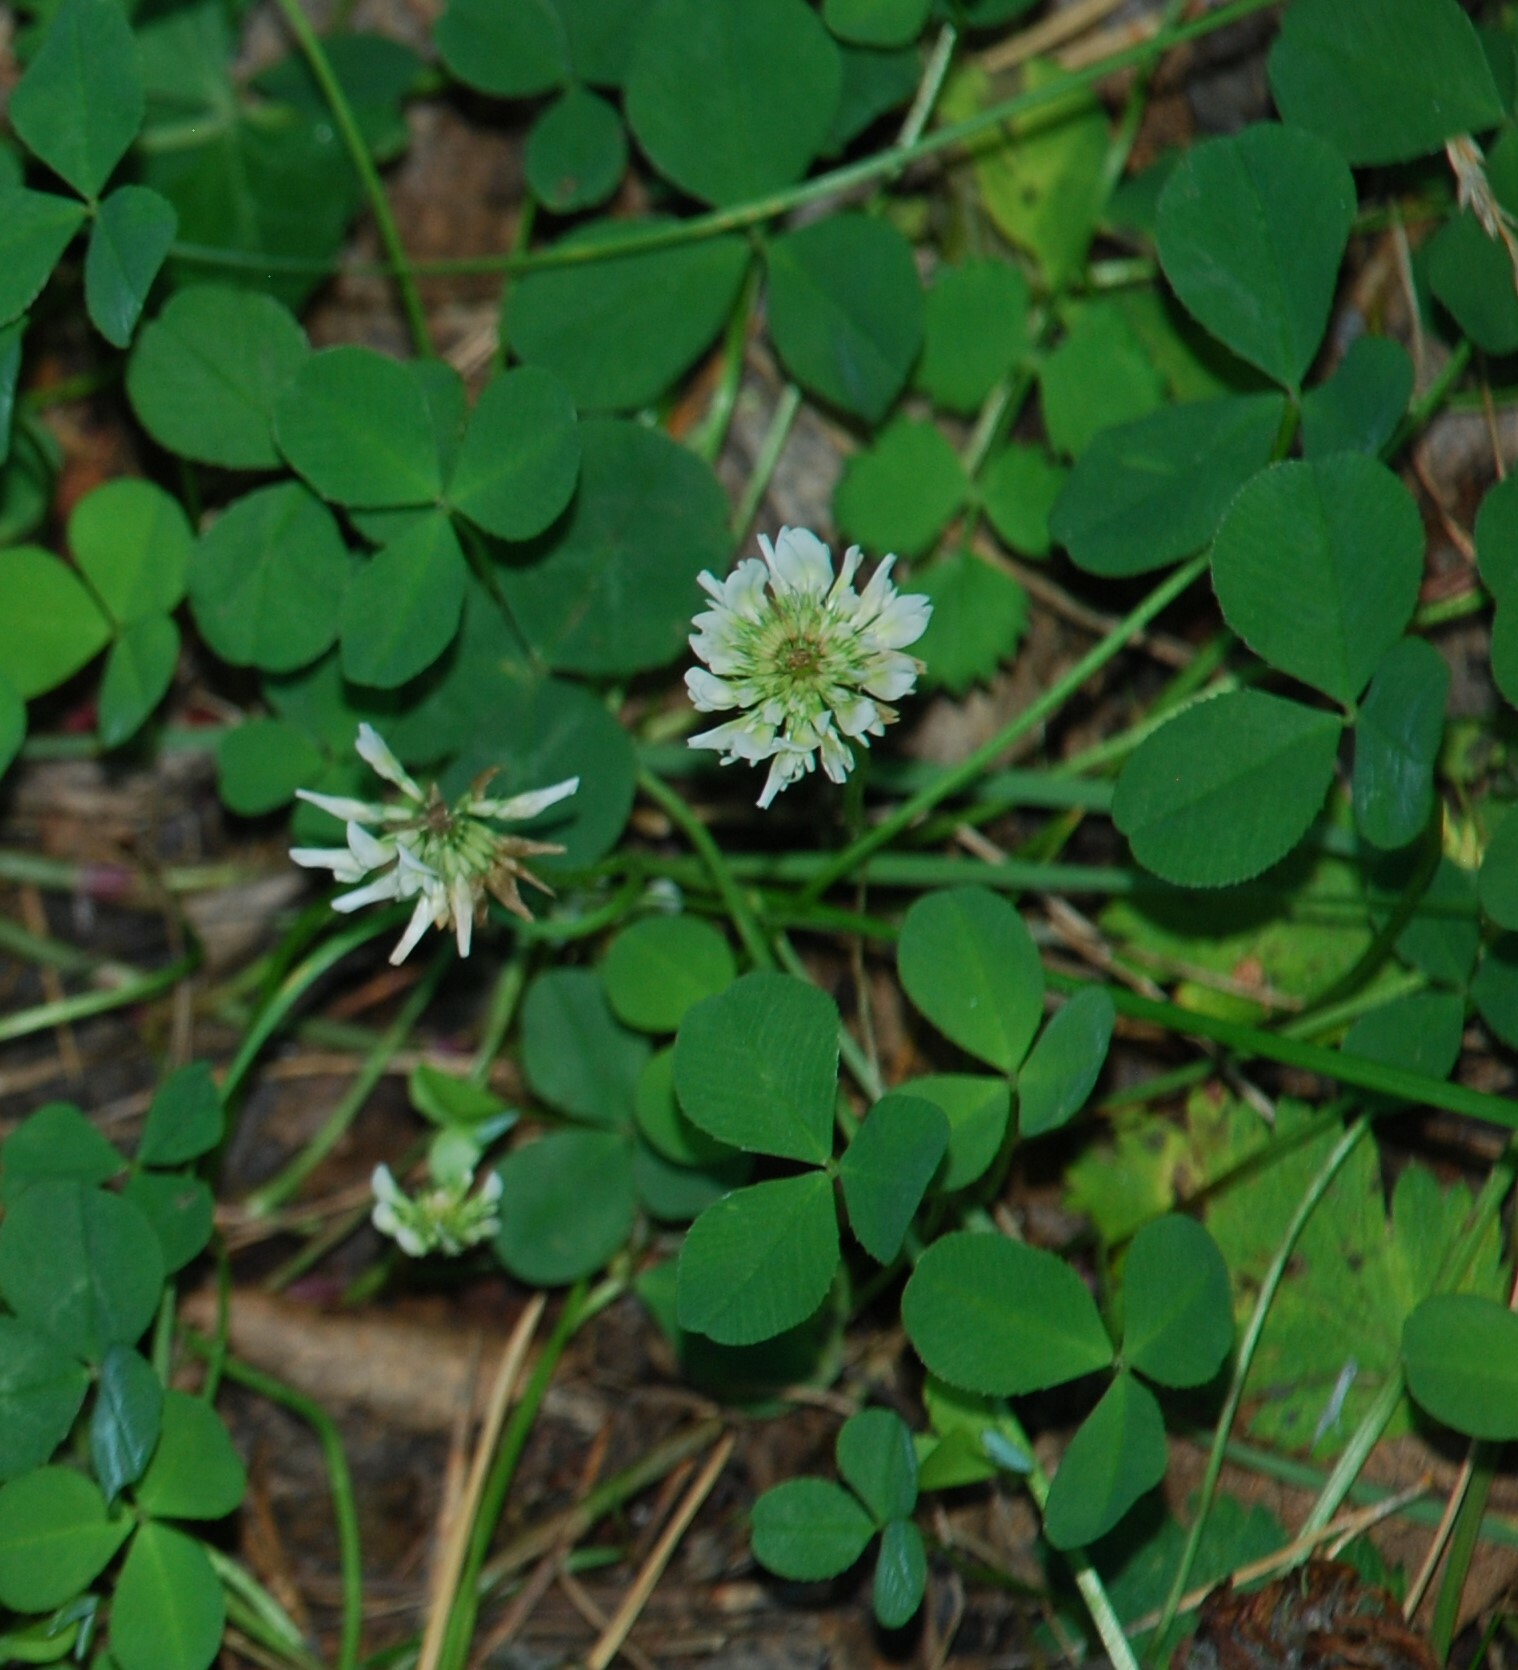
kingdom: Plantae
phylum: Tracheophyta
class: Magnoliopsida
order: Fabales
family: Fabaceae
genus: Trifolium
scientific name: Trifolium repens
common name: White clover
